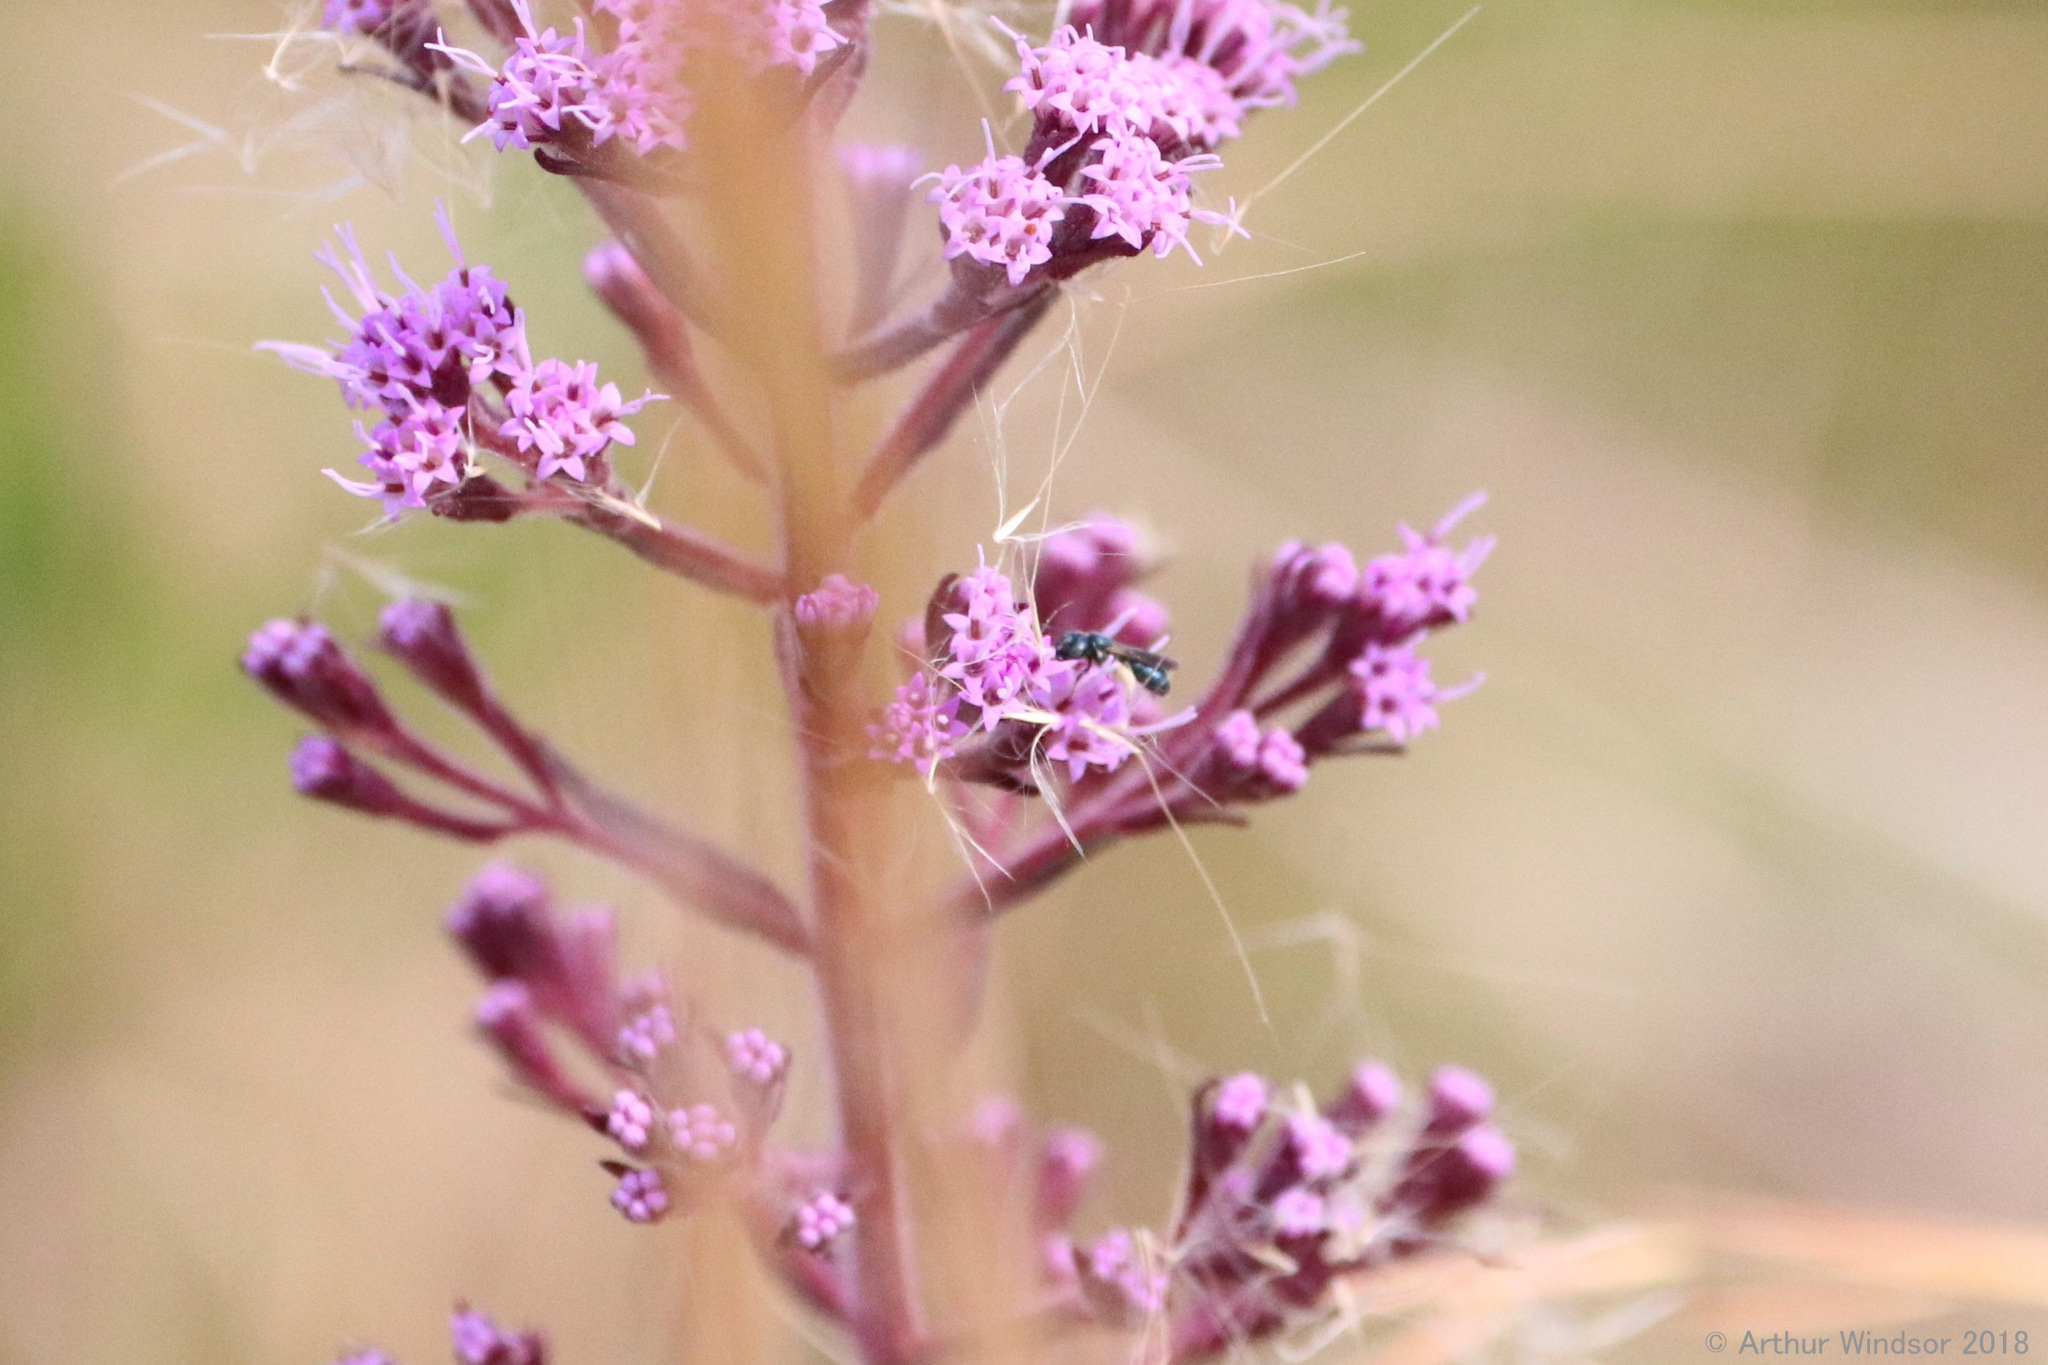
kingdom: Animalia
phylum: Arthropoda
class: Insecta
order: Hymenoptera
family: Apidae
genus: Zadontomerus
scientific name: Zadontomerus
